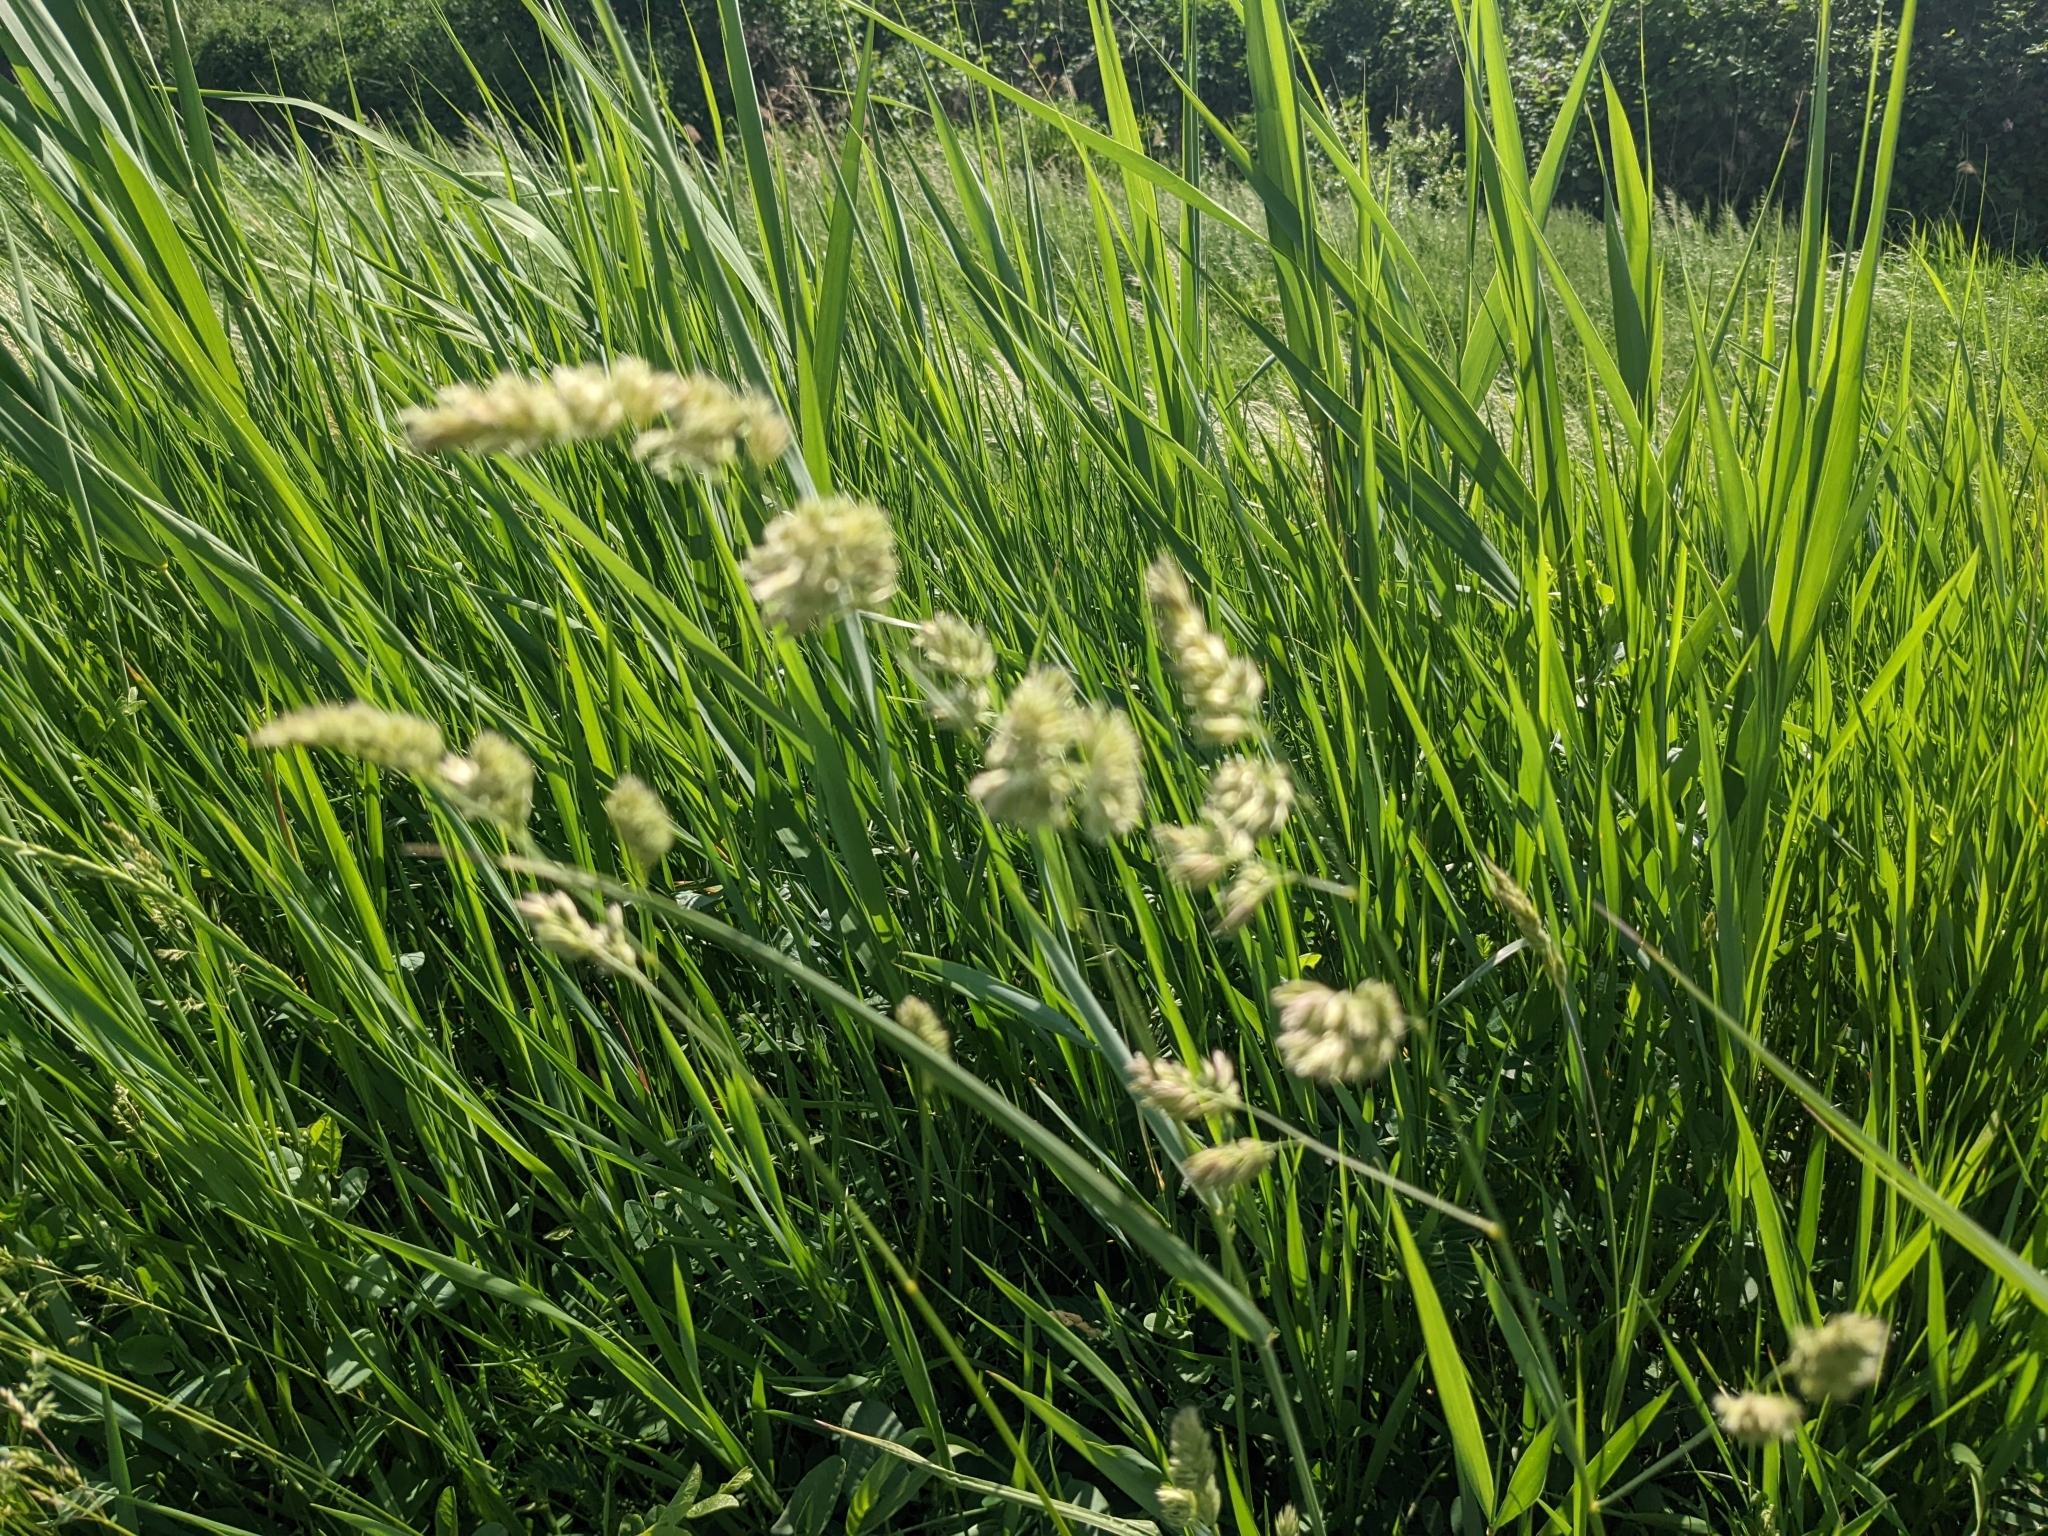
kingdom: Plantae
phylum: Tracheophyta
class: Liliopsida
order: Poales
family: Poaceae
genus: Dactylis
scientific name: Dactylis glomerata
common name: Orchardgrass
